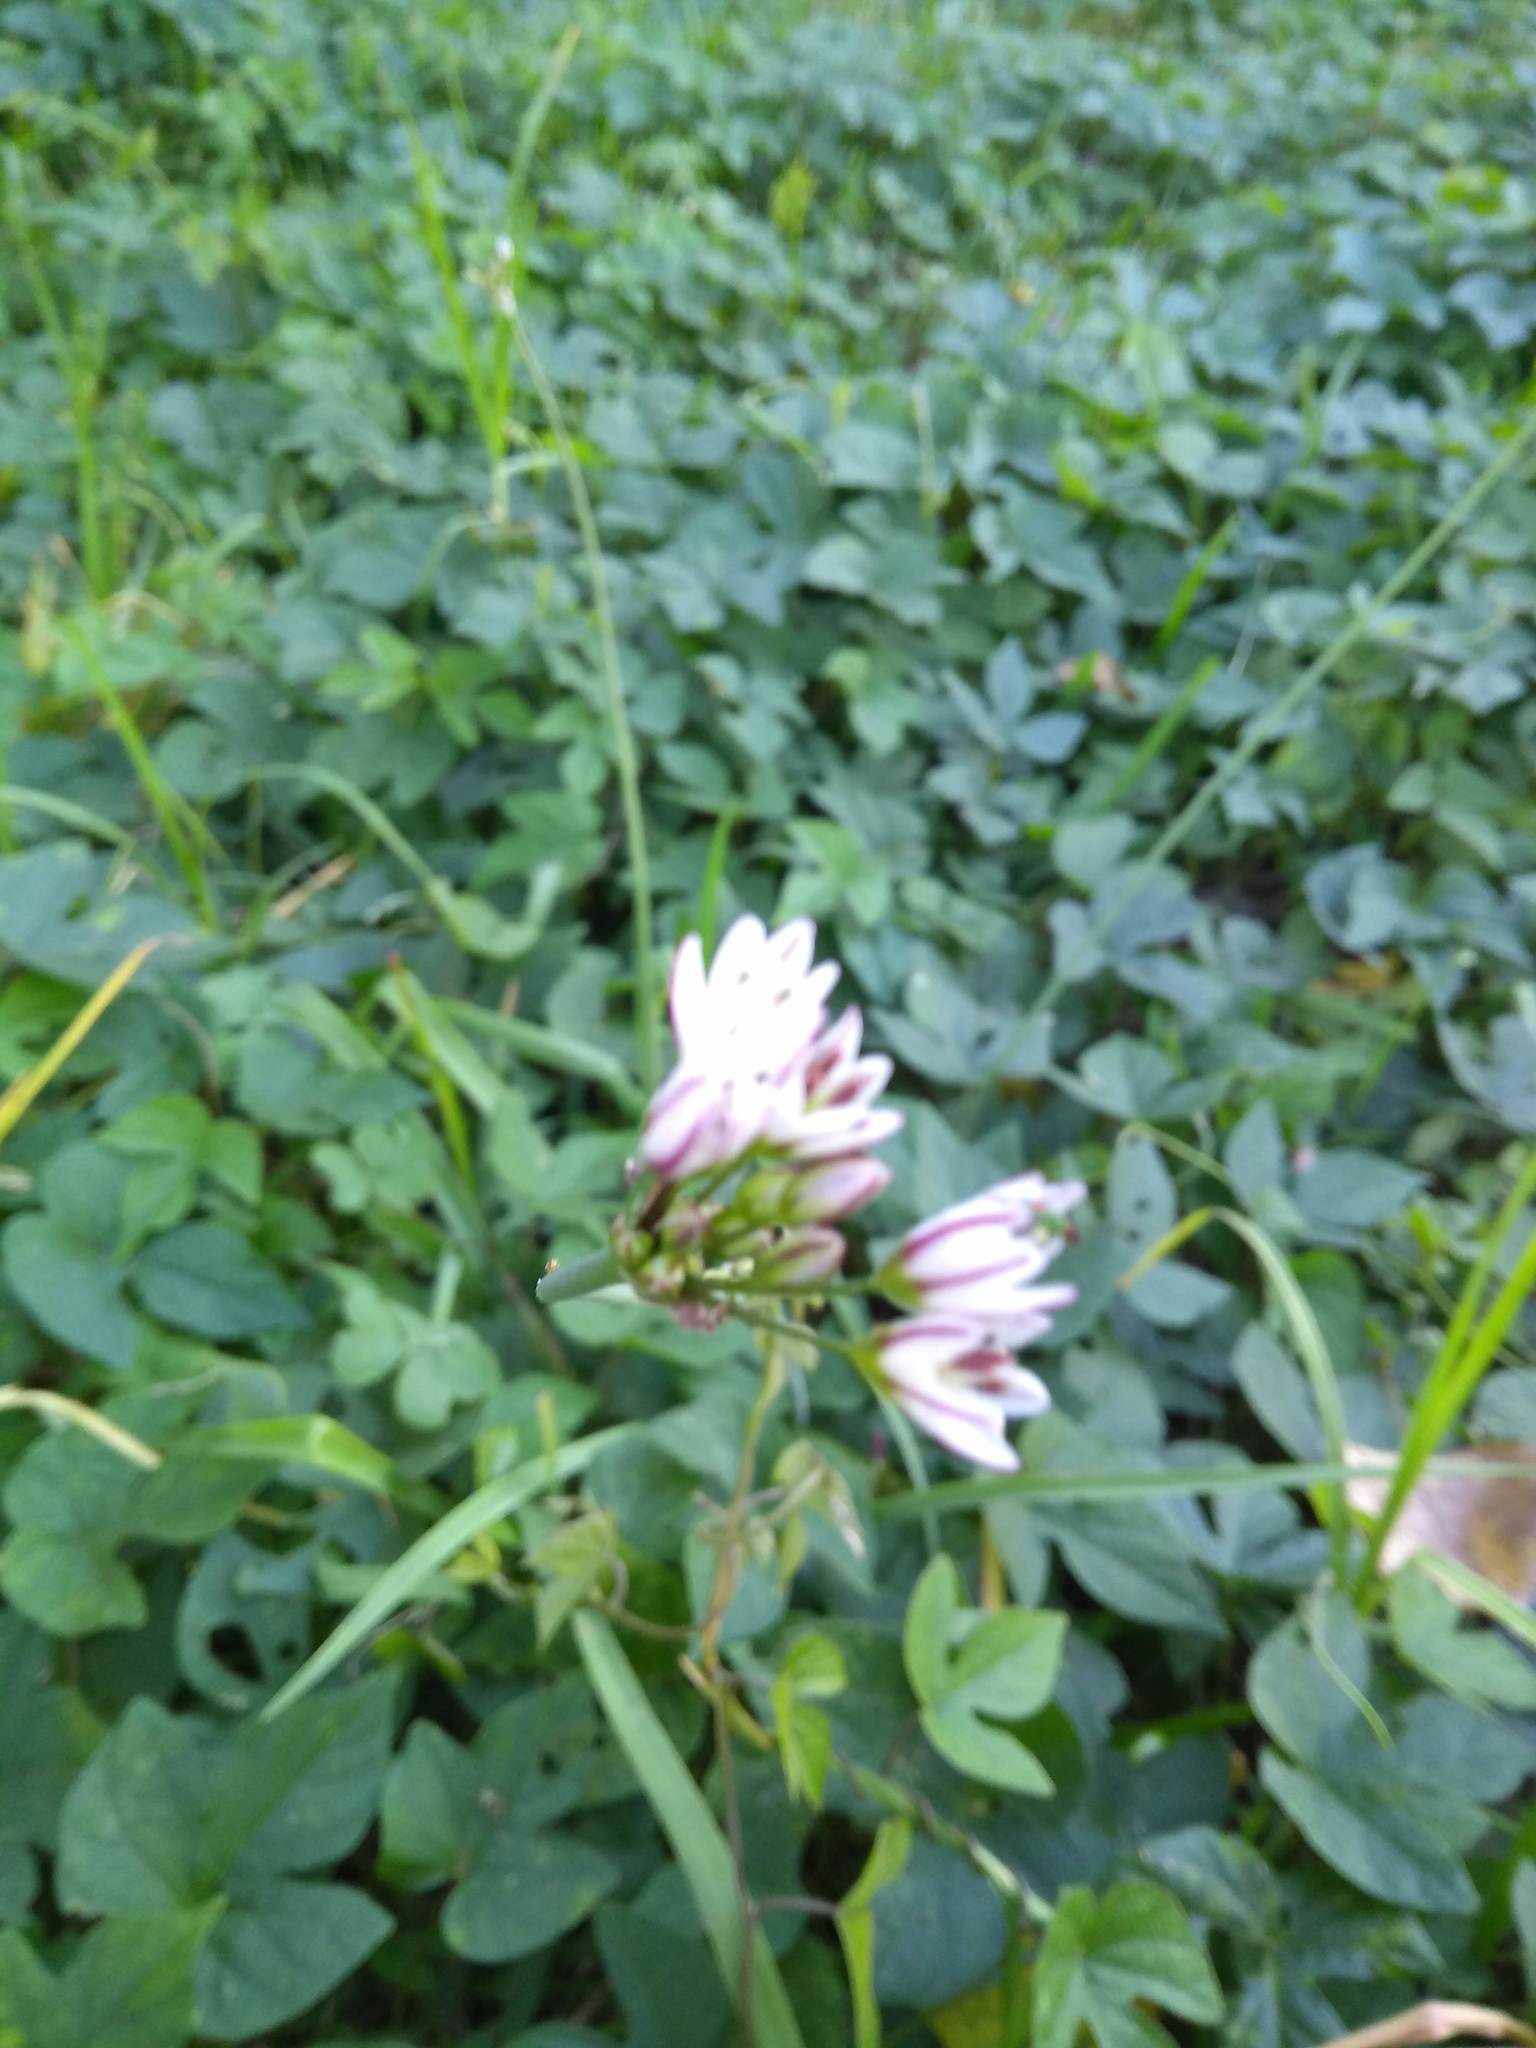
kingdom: Plantae
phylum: Tracheophyta
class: Liliopsida
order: Asparagales
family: Amaryllidaceae
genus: Nothoscordum
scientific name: Nothoscordum gracile
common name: Slender false garlic
